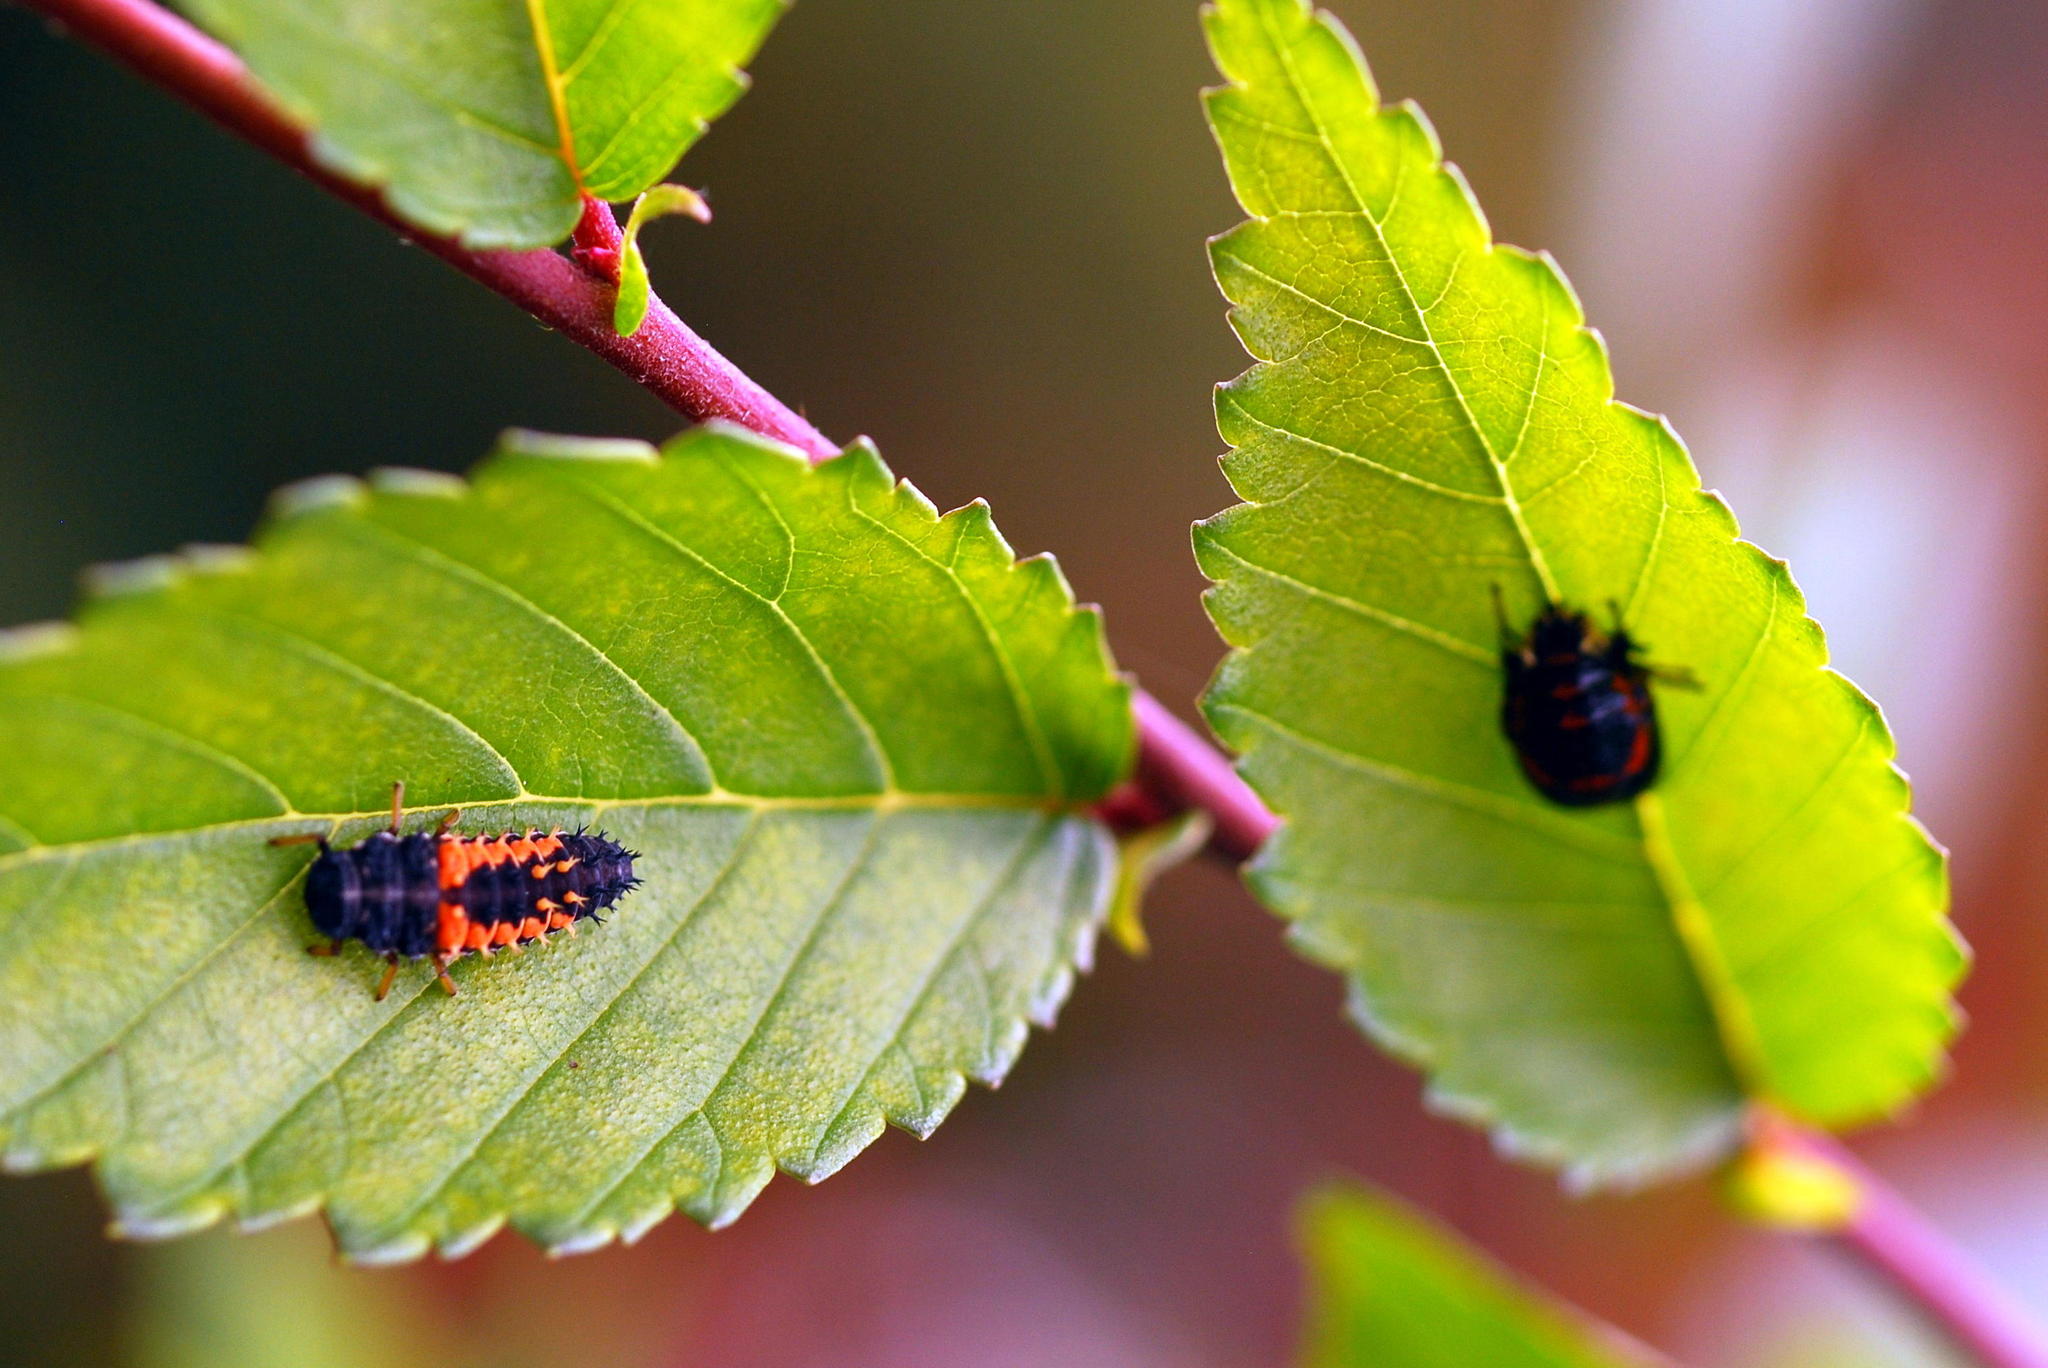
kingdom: Animalia
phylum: Arthropoda
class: Insecta
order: Coleoptera
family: Coccinellidae
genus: Harmonia
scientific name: Harmonia axyridis
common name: Harlequin ladybird
